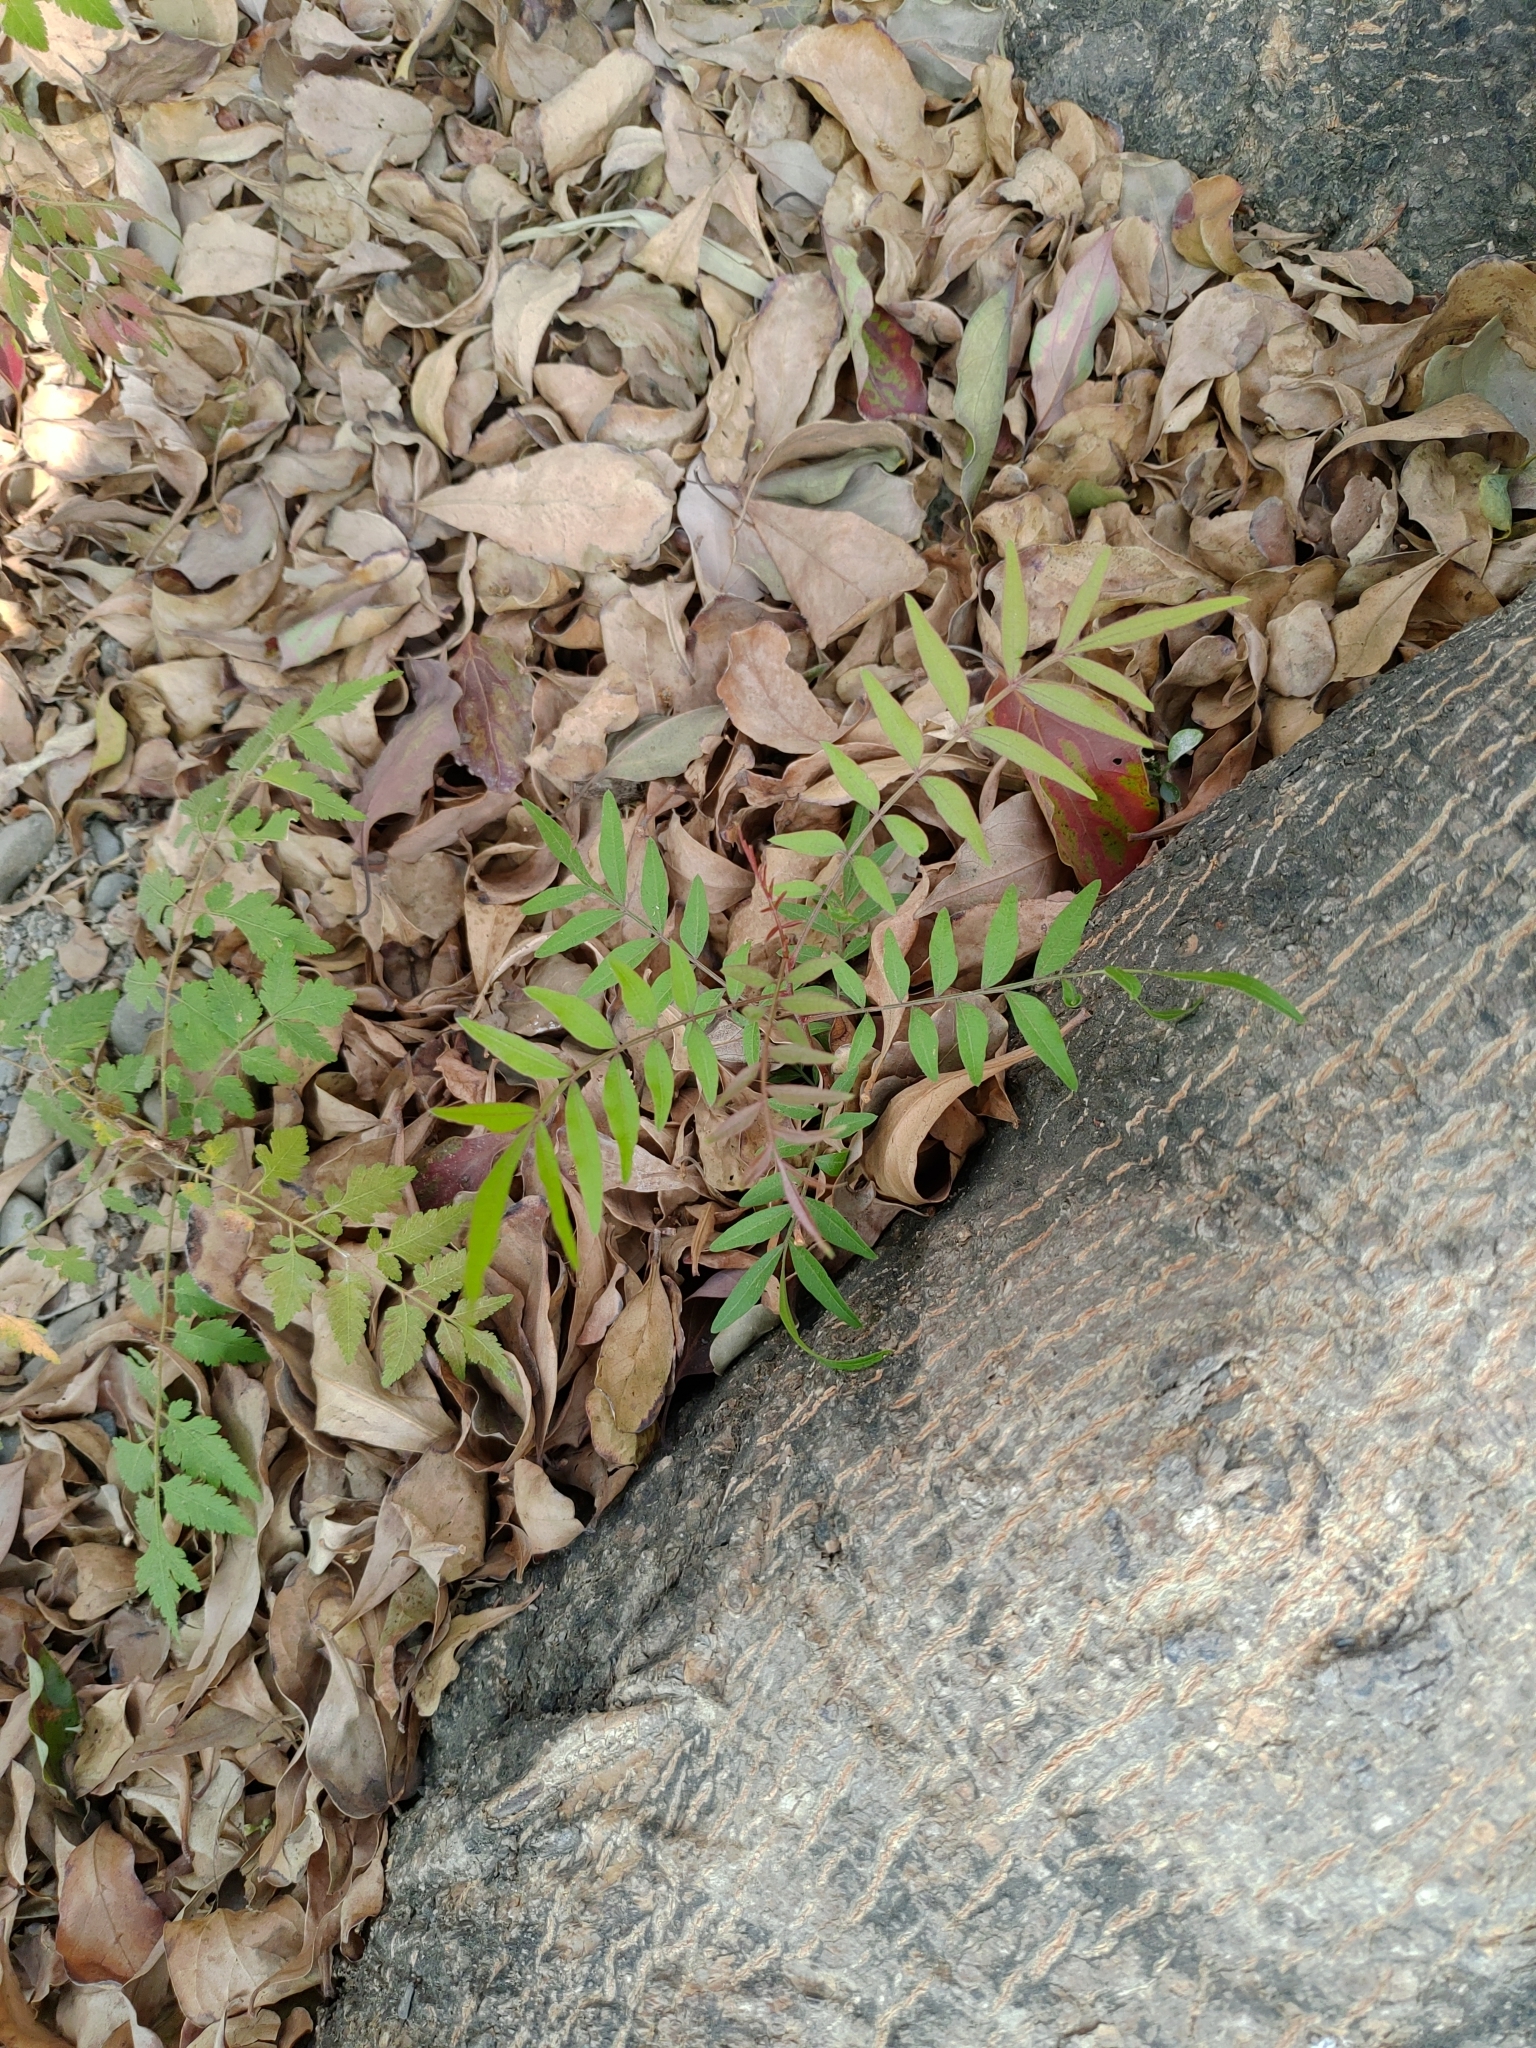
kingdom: Plantae
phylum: Tracheophyta
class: Magnoliopsida
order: Sapindales
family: Anacardiaceae
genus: Pistacia
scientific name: Pistacia chinensis
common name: Chinese pistache
